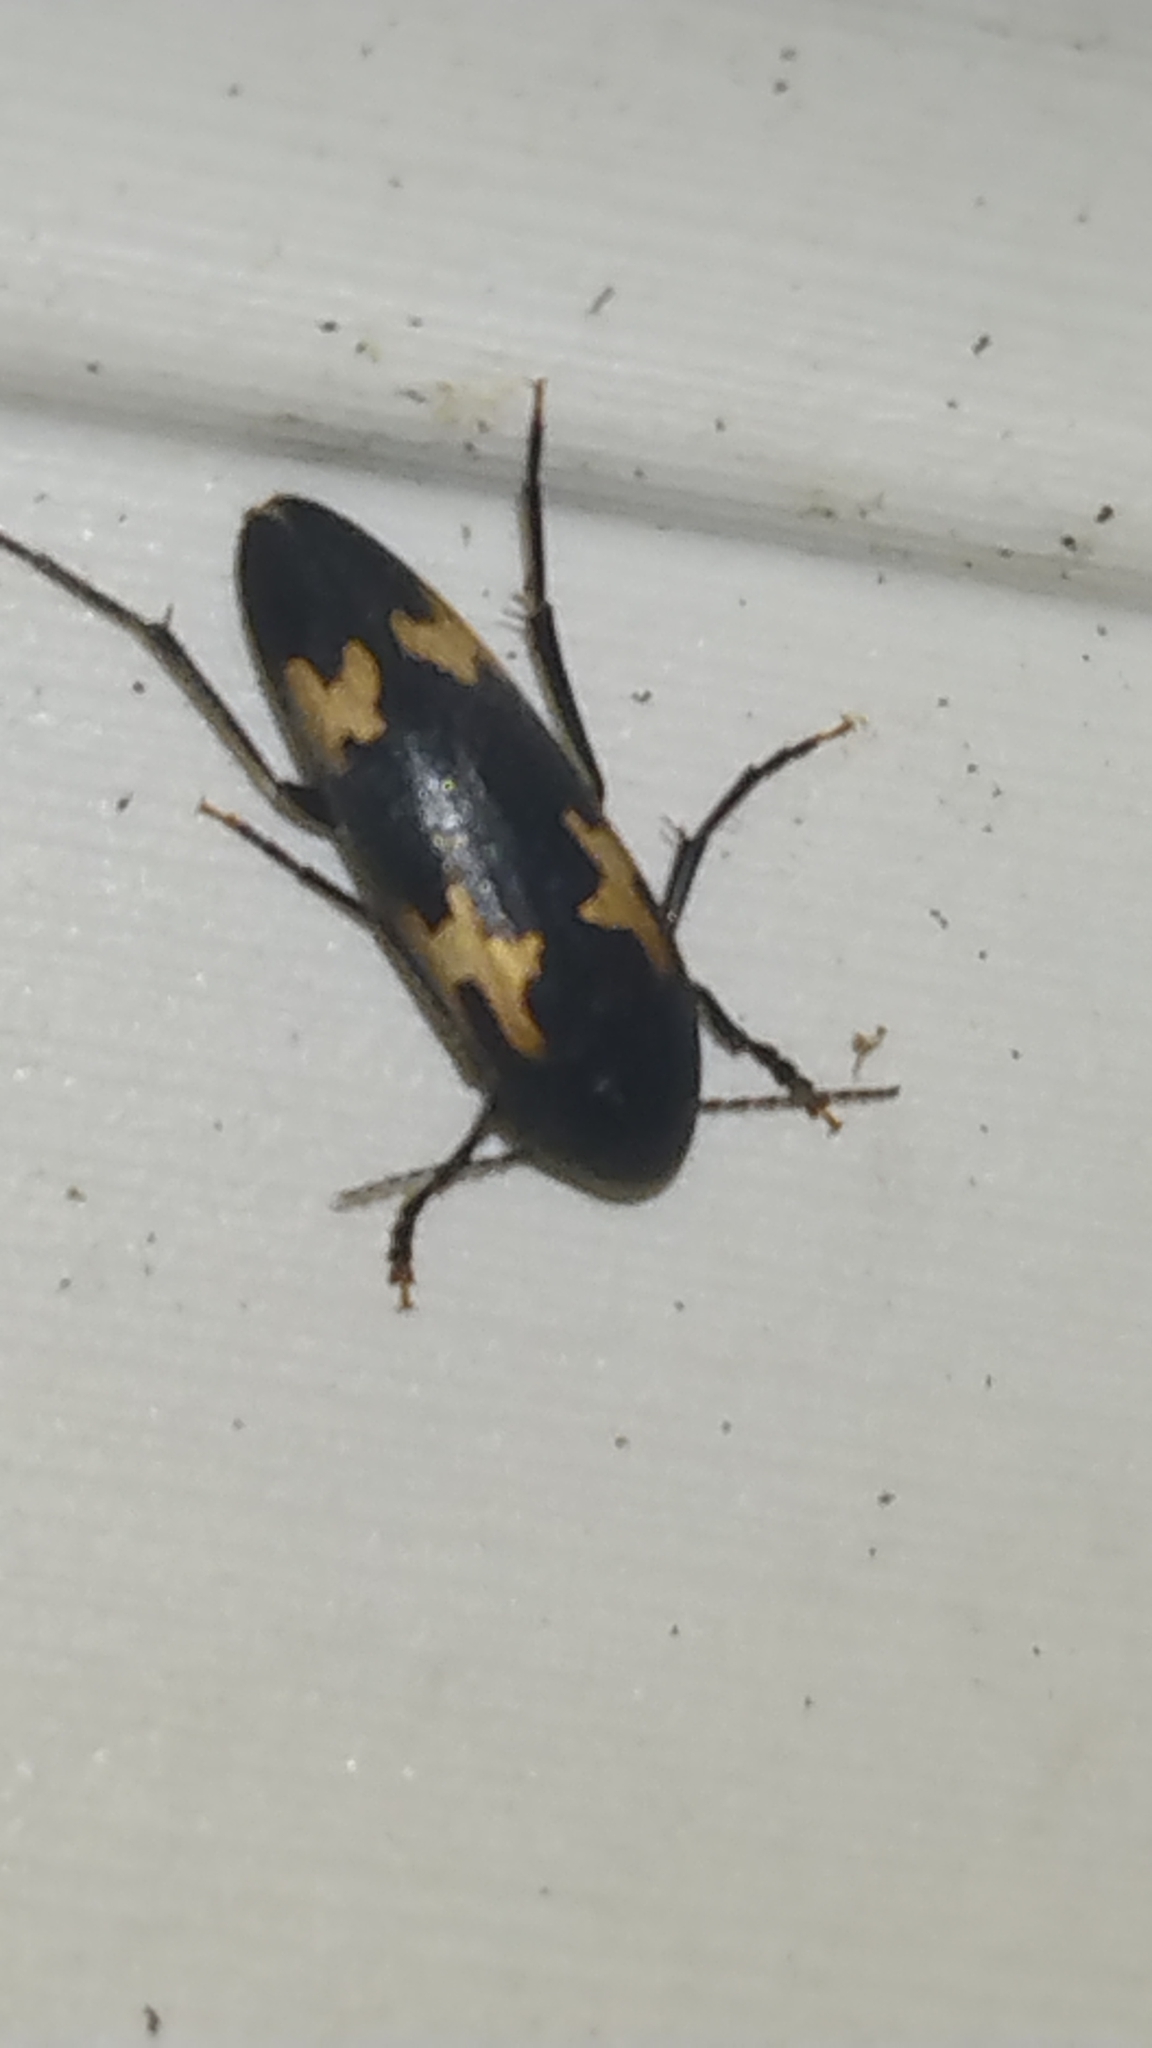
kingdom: Animalia
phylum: Arthropoda
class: Insecta
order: Coleoptera
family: Melandryidae
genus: Dircaea
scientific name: Dircaea liturata
